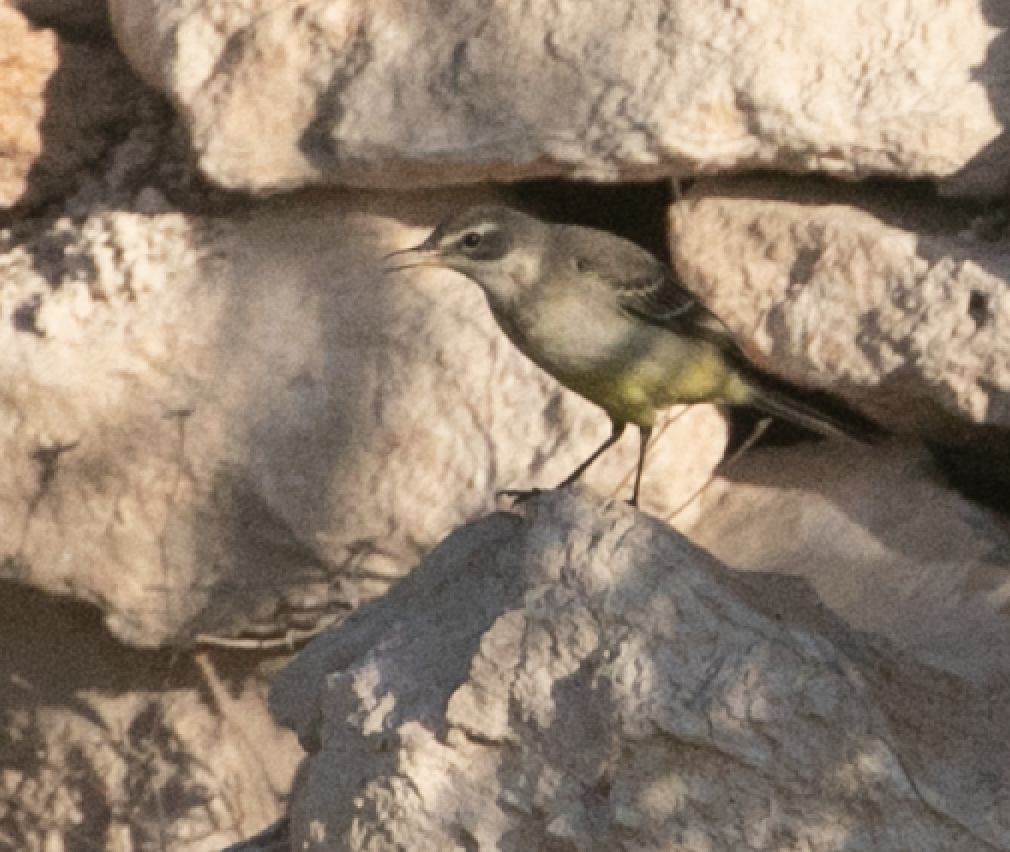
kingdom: Animalia
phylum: Chordata
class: Aves
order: Passeriformes
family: Motacillidae
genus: Motacilla
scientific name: Motacilla flava
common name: Western yellow wagtail
